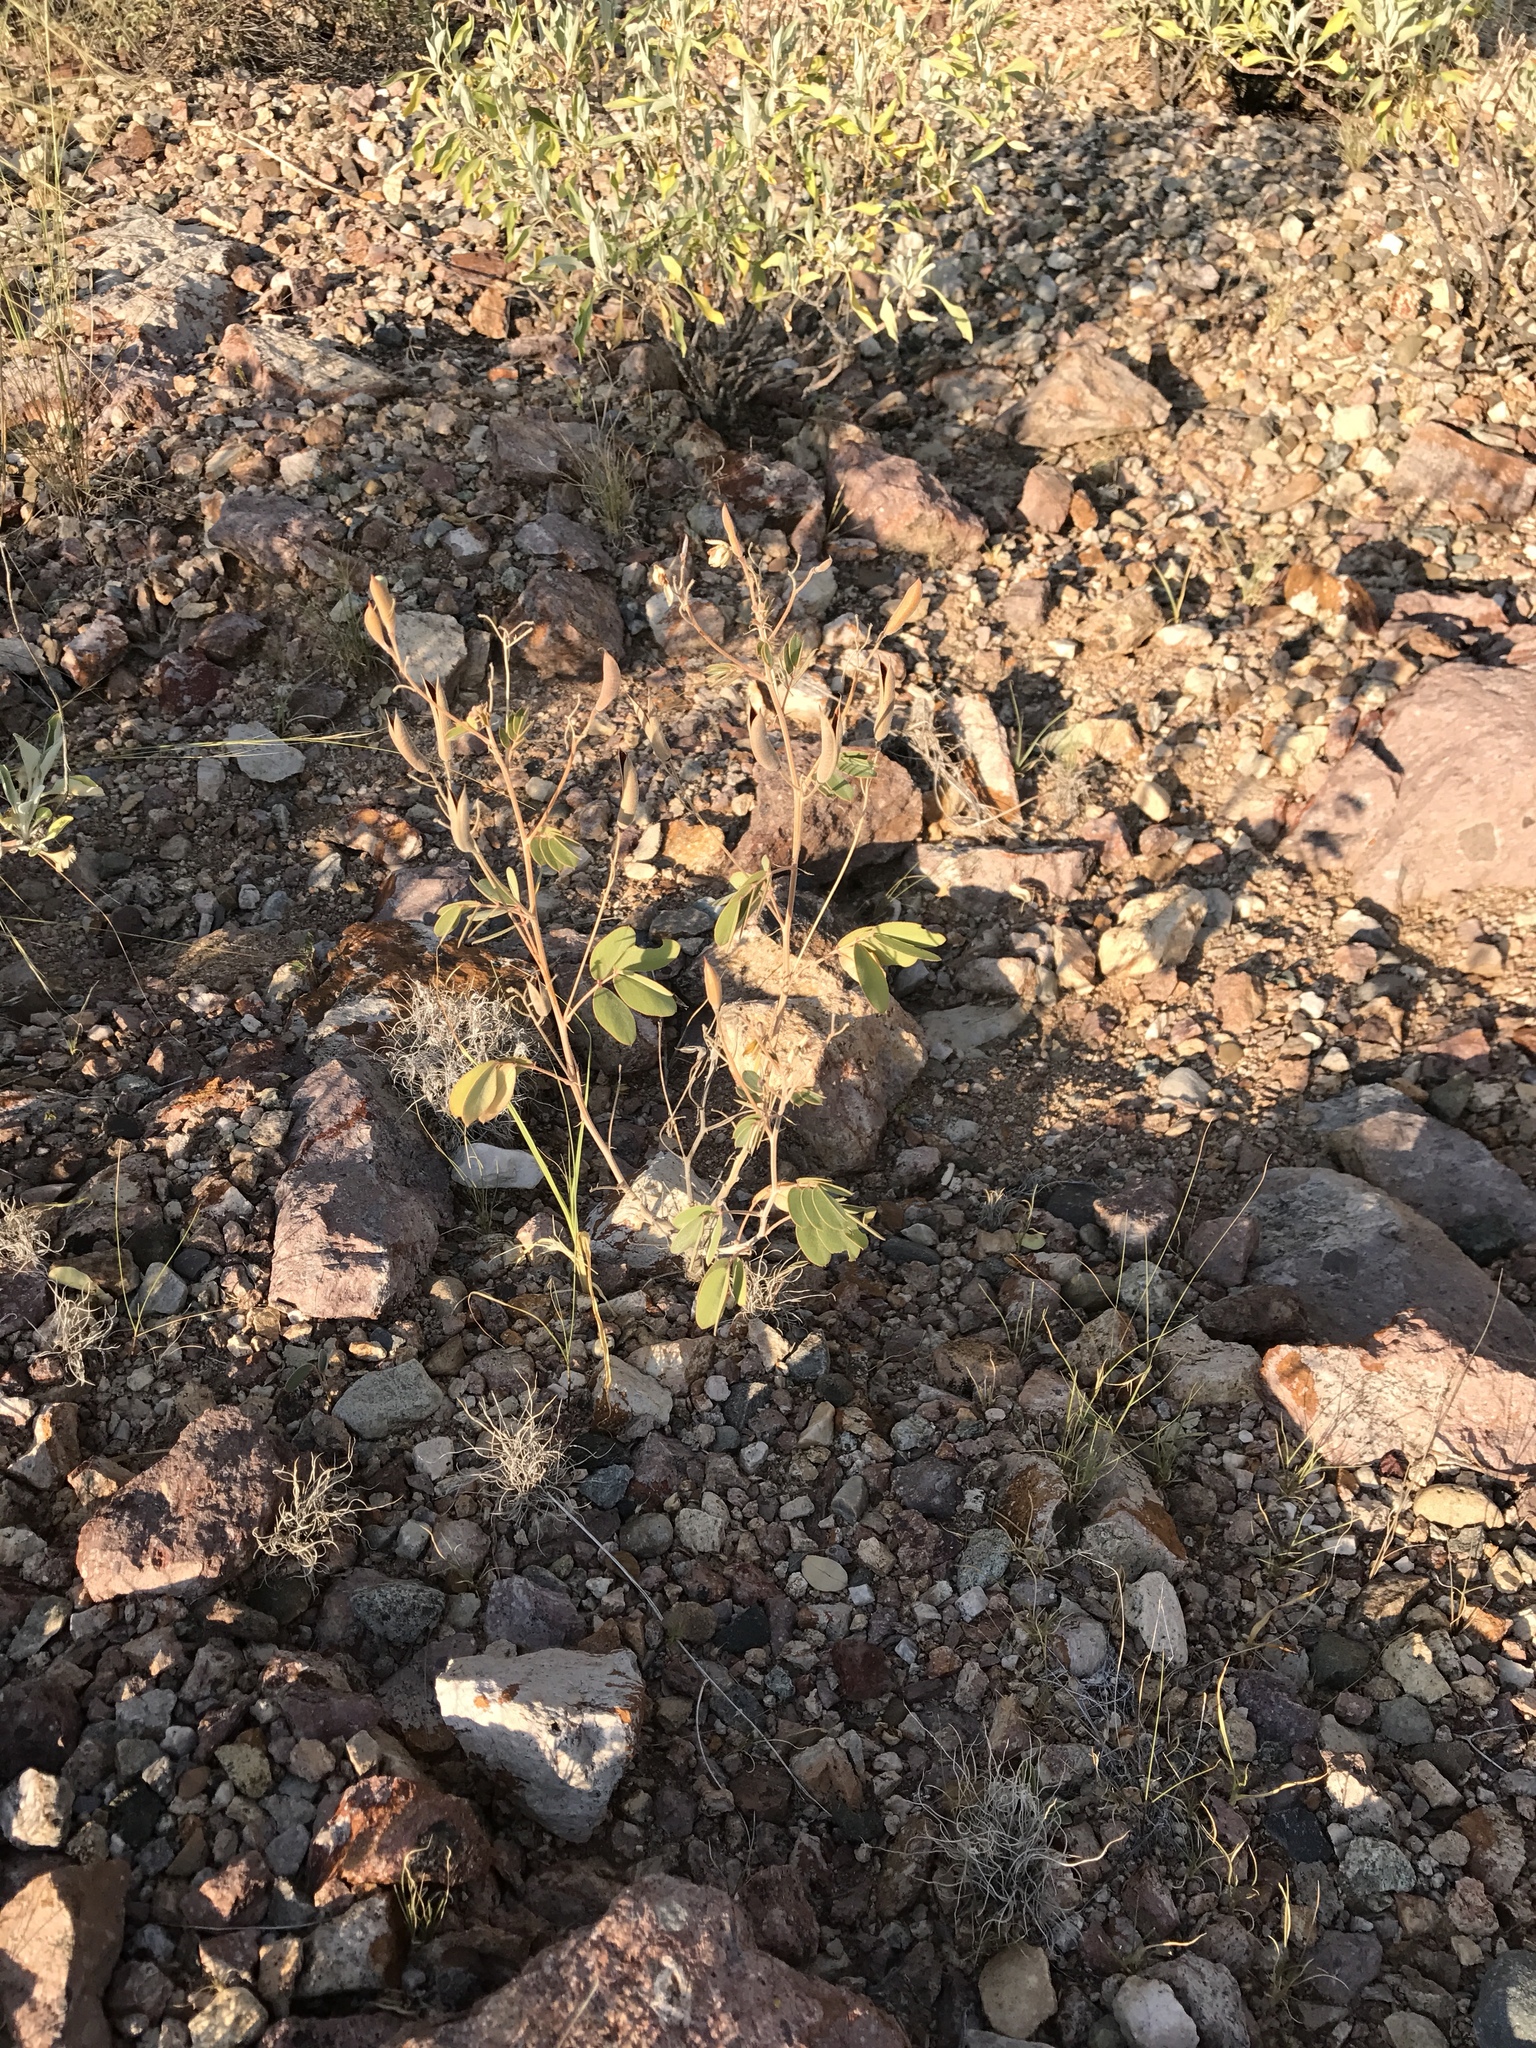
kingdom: Plantae
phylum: Tracheophyta
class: Magnoliopsida
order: Fabales
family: Fabaceae
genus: Senna
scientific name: Senna covesii
